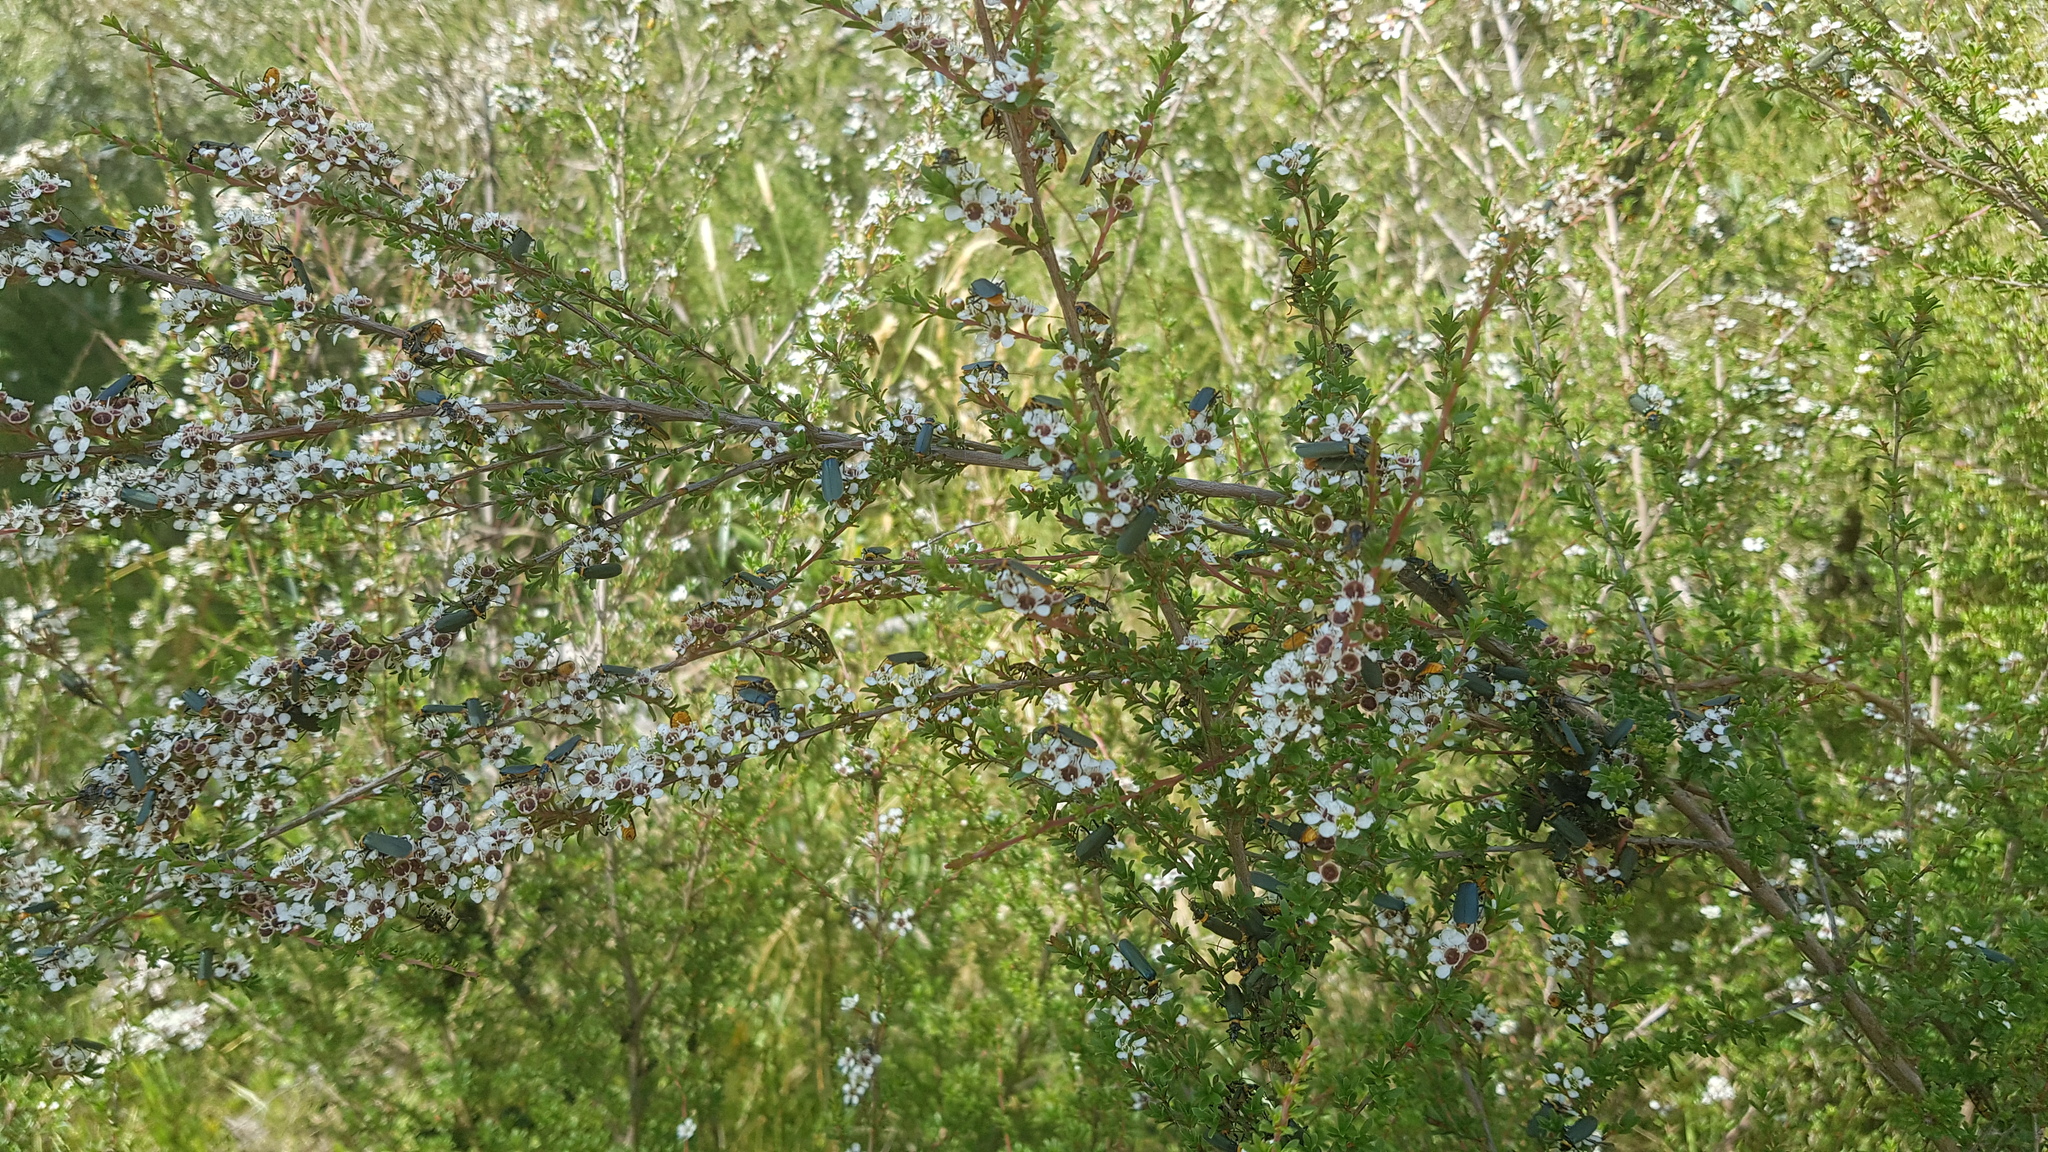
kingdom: Animalia
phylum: Arthropoda
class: Insecta
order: Coleoptera
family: Cantharidae
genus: Chauliognathus
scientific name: Chauliognathus
